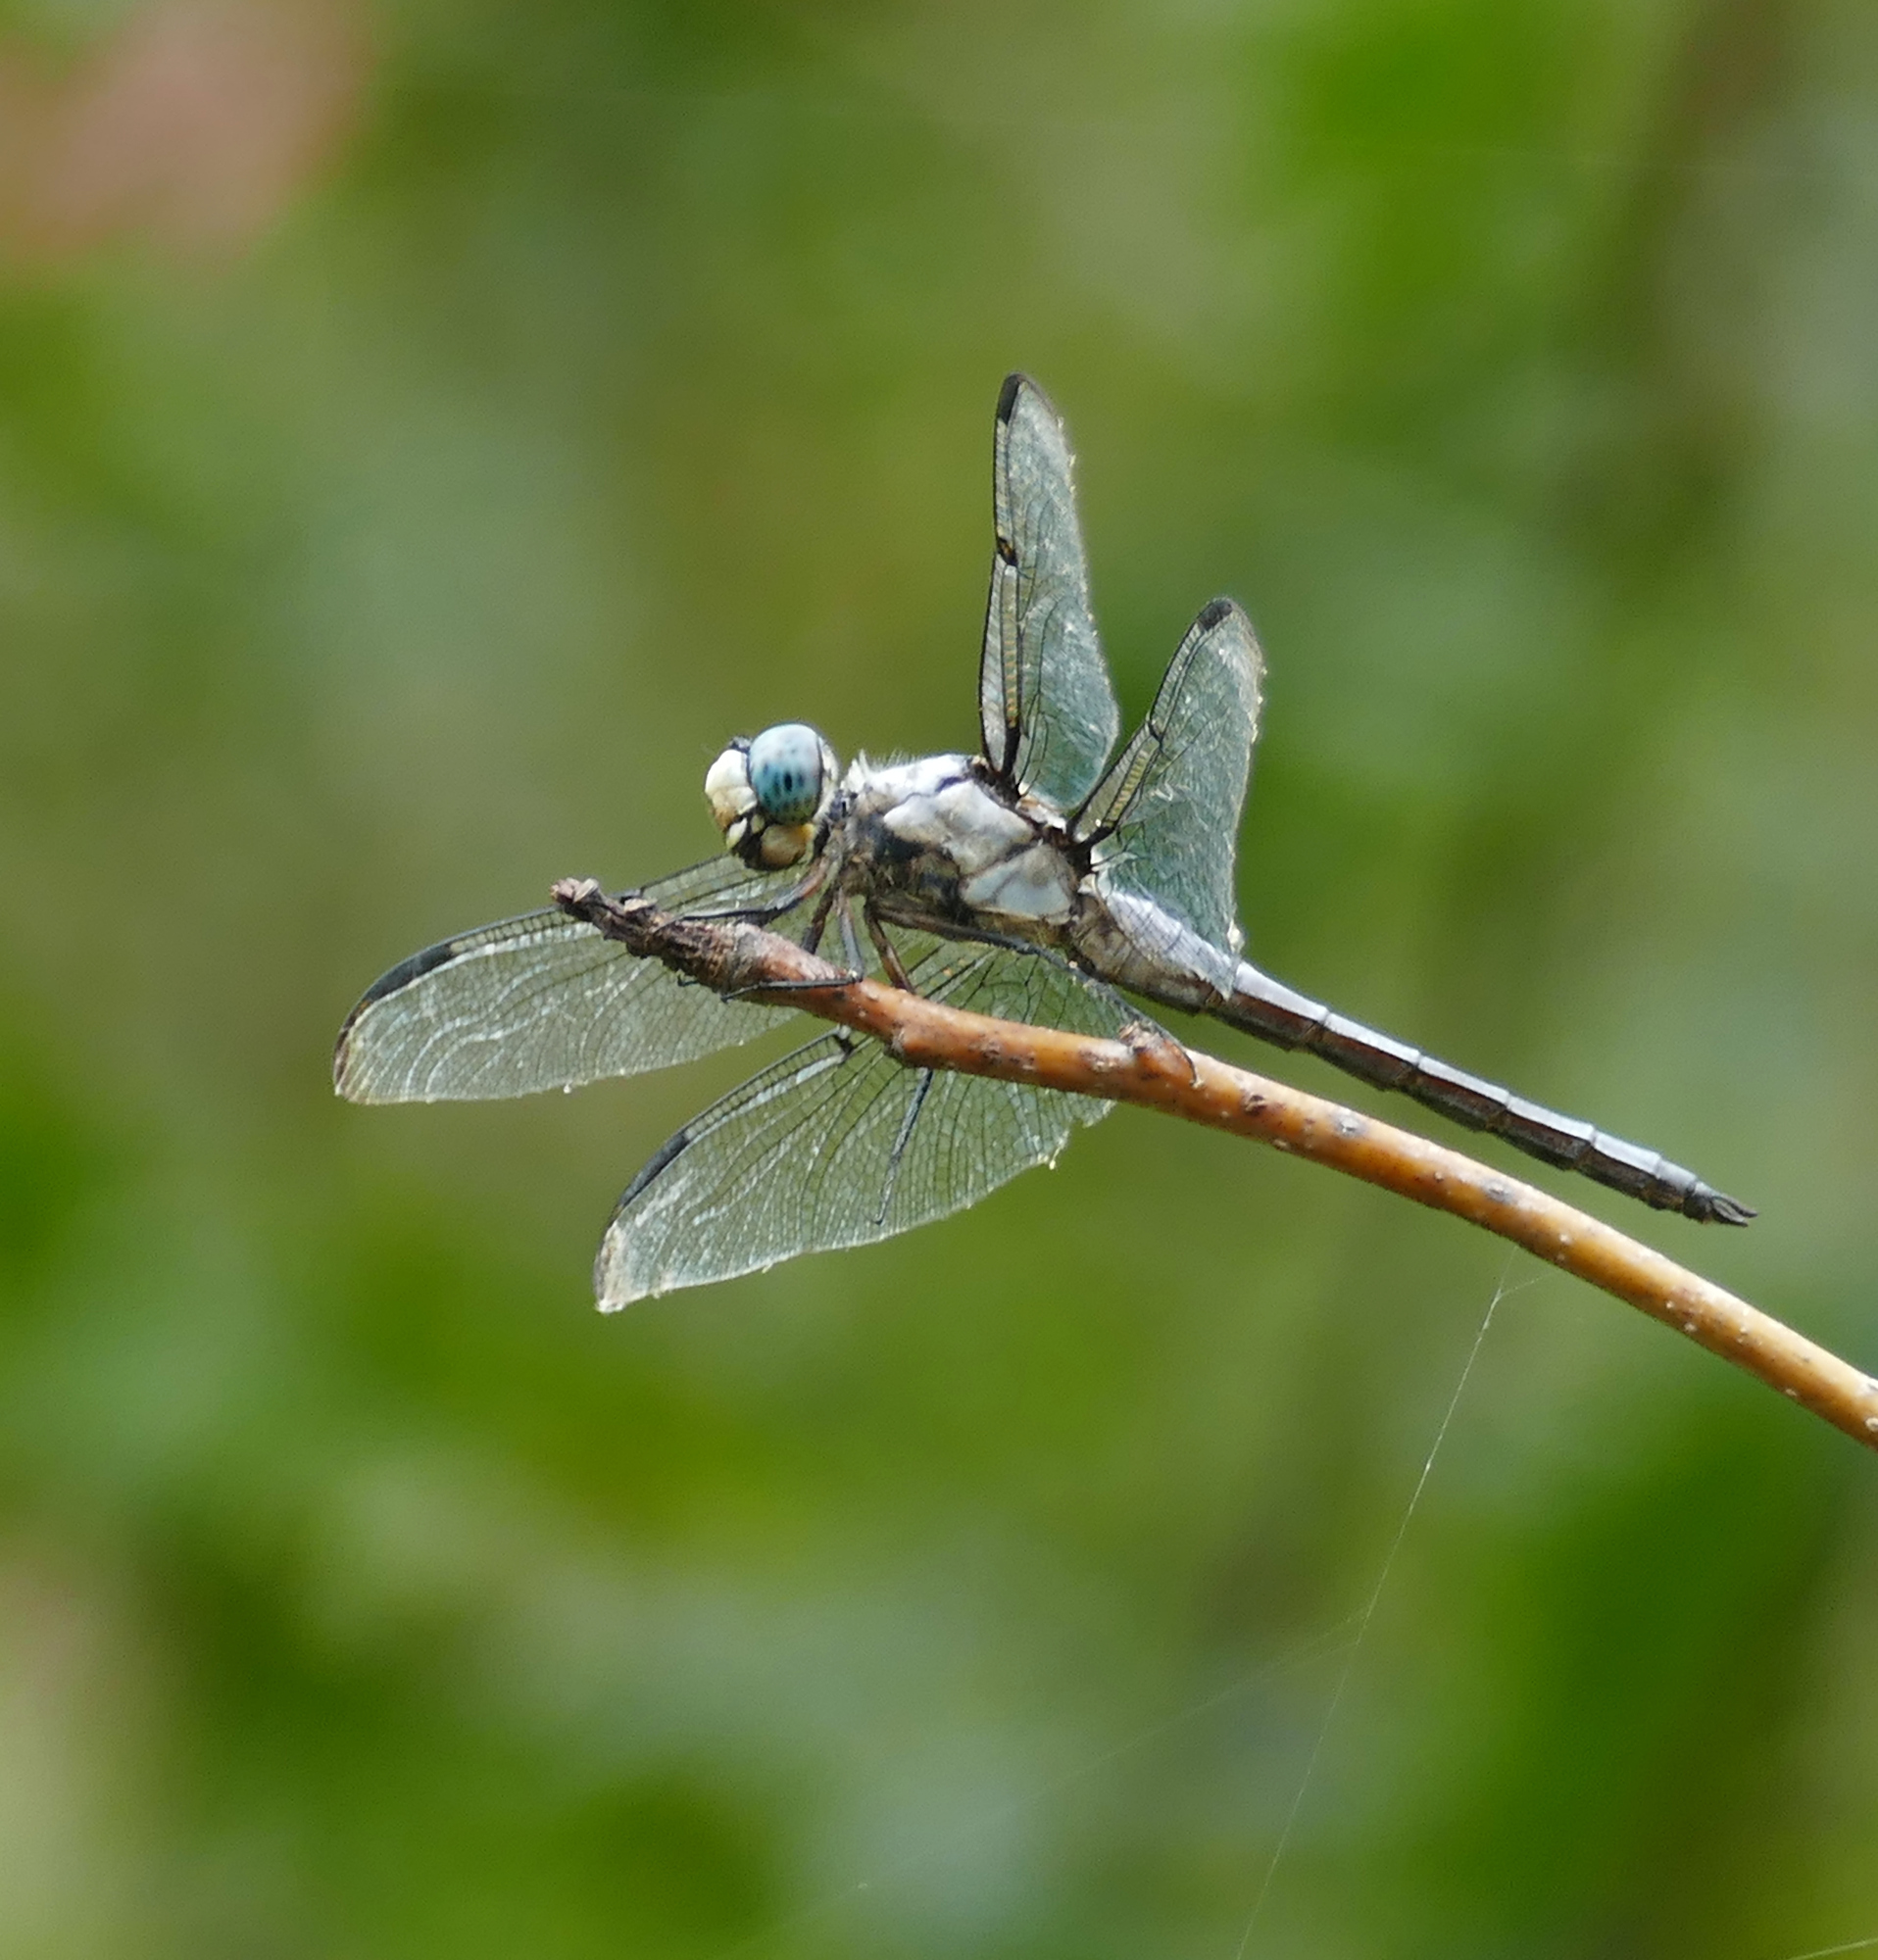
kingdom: Animalia
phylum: Arthropoda
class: Insecta
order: Odonata
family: Libellulidae
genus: Libellula
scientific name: Libellula vibrans
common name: Great blue skimmer
